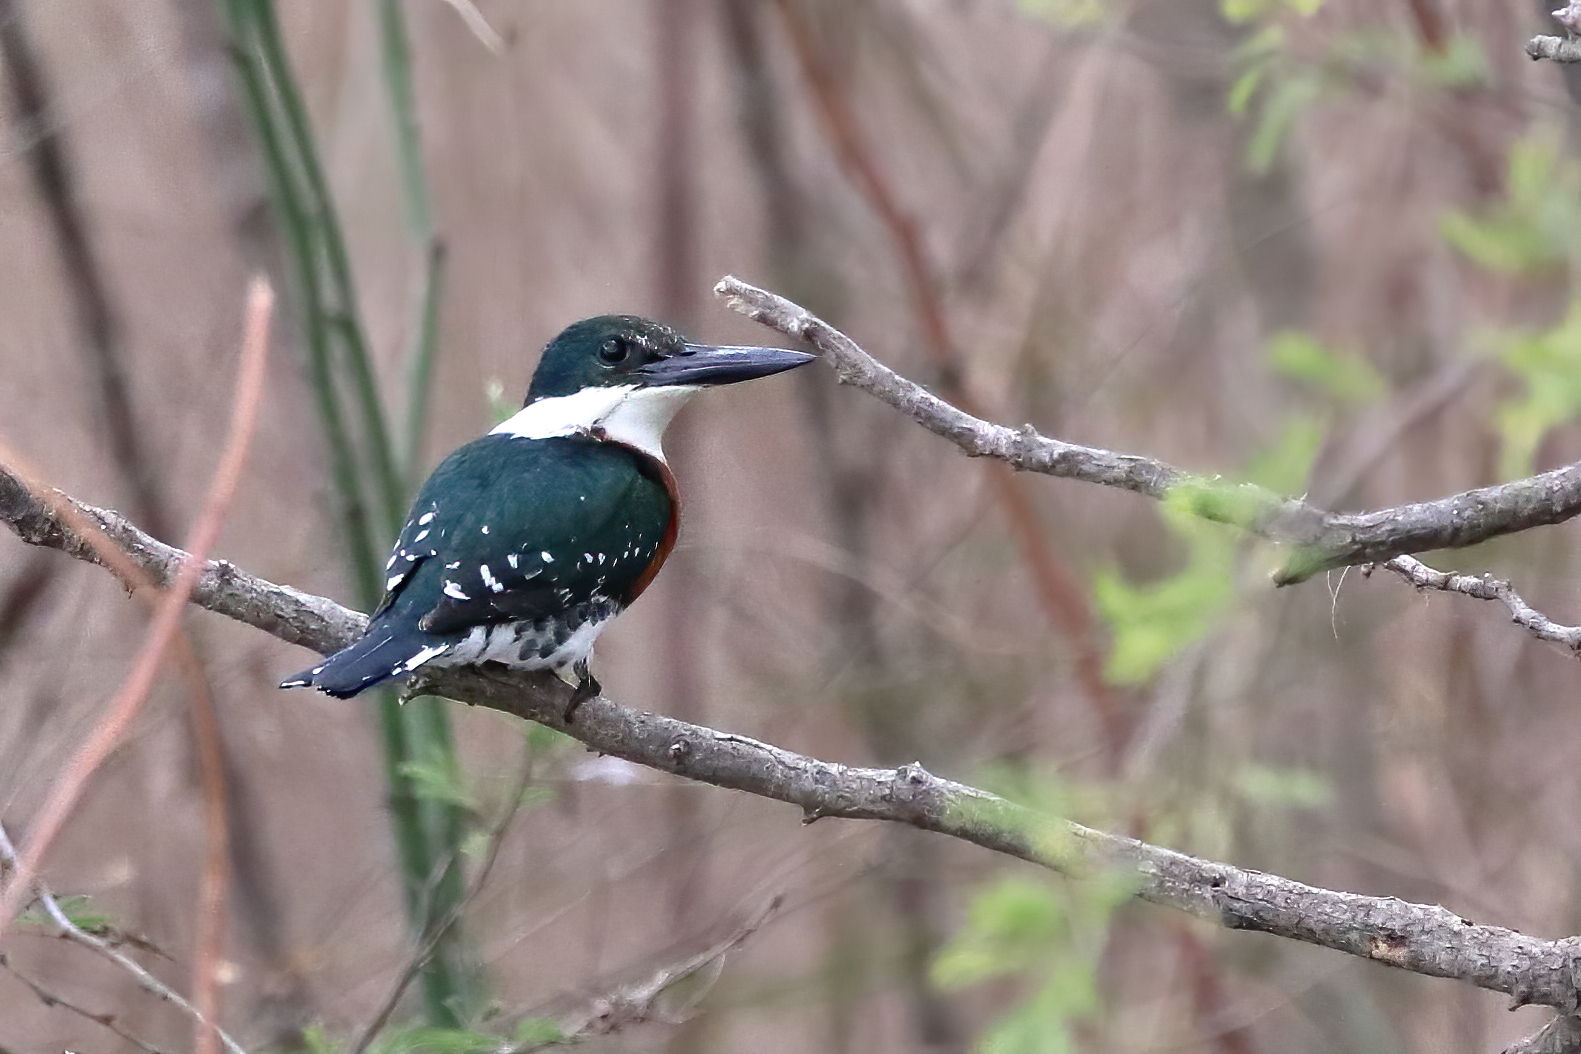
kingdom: Animalia
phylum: Chordata
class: Aves
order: Coraciiformes
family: Alcedinidae
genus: Chloroceryle
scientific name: Chloroceryle americana
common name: Green kingfisher
